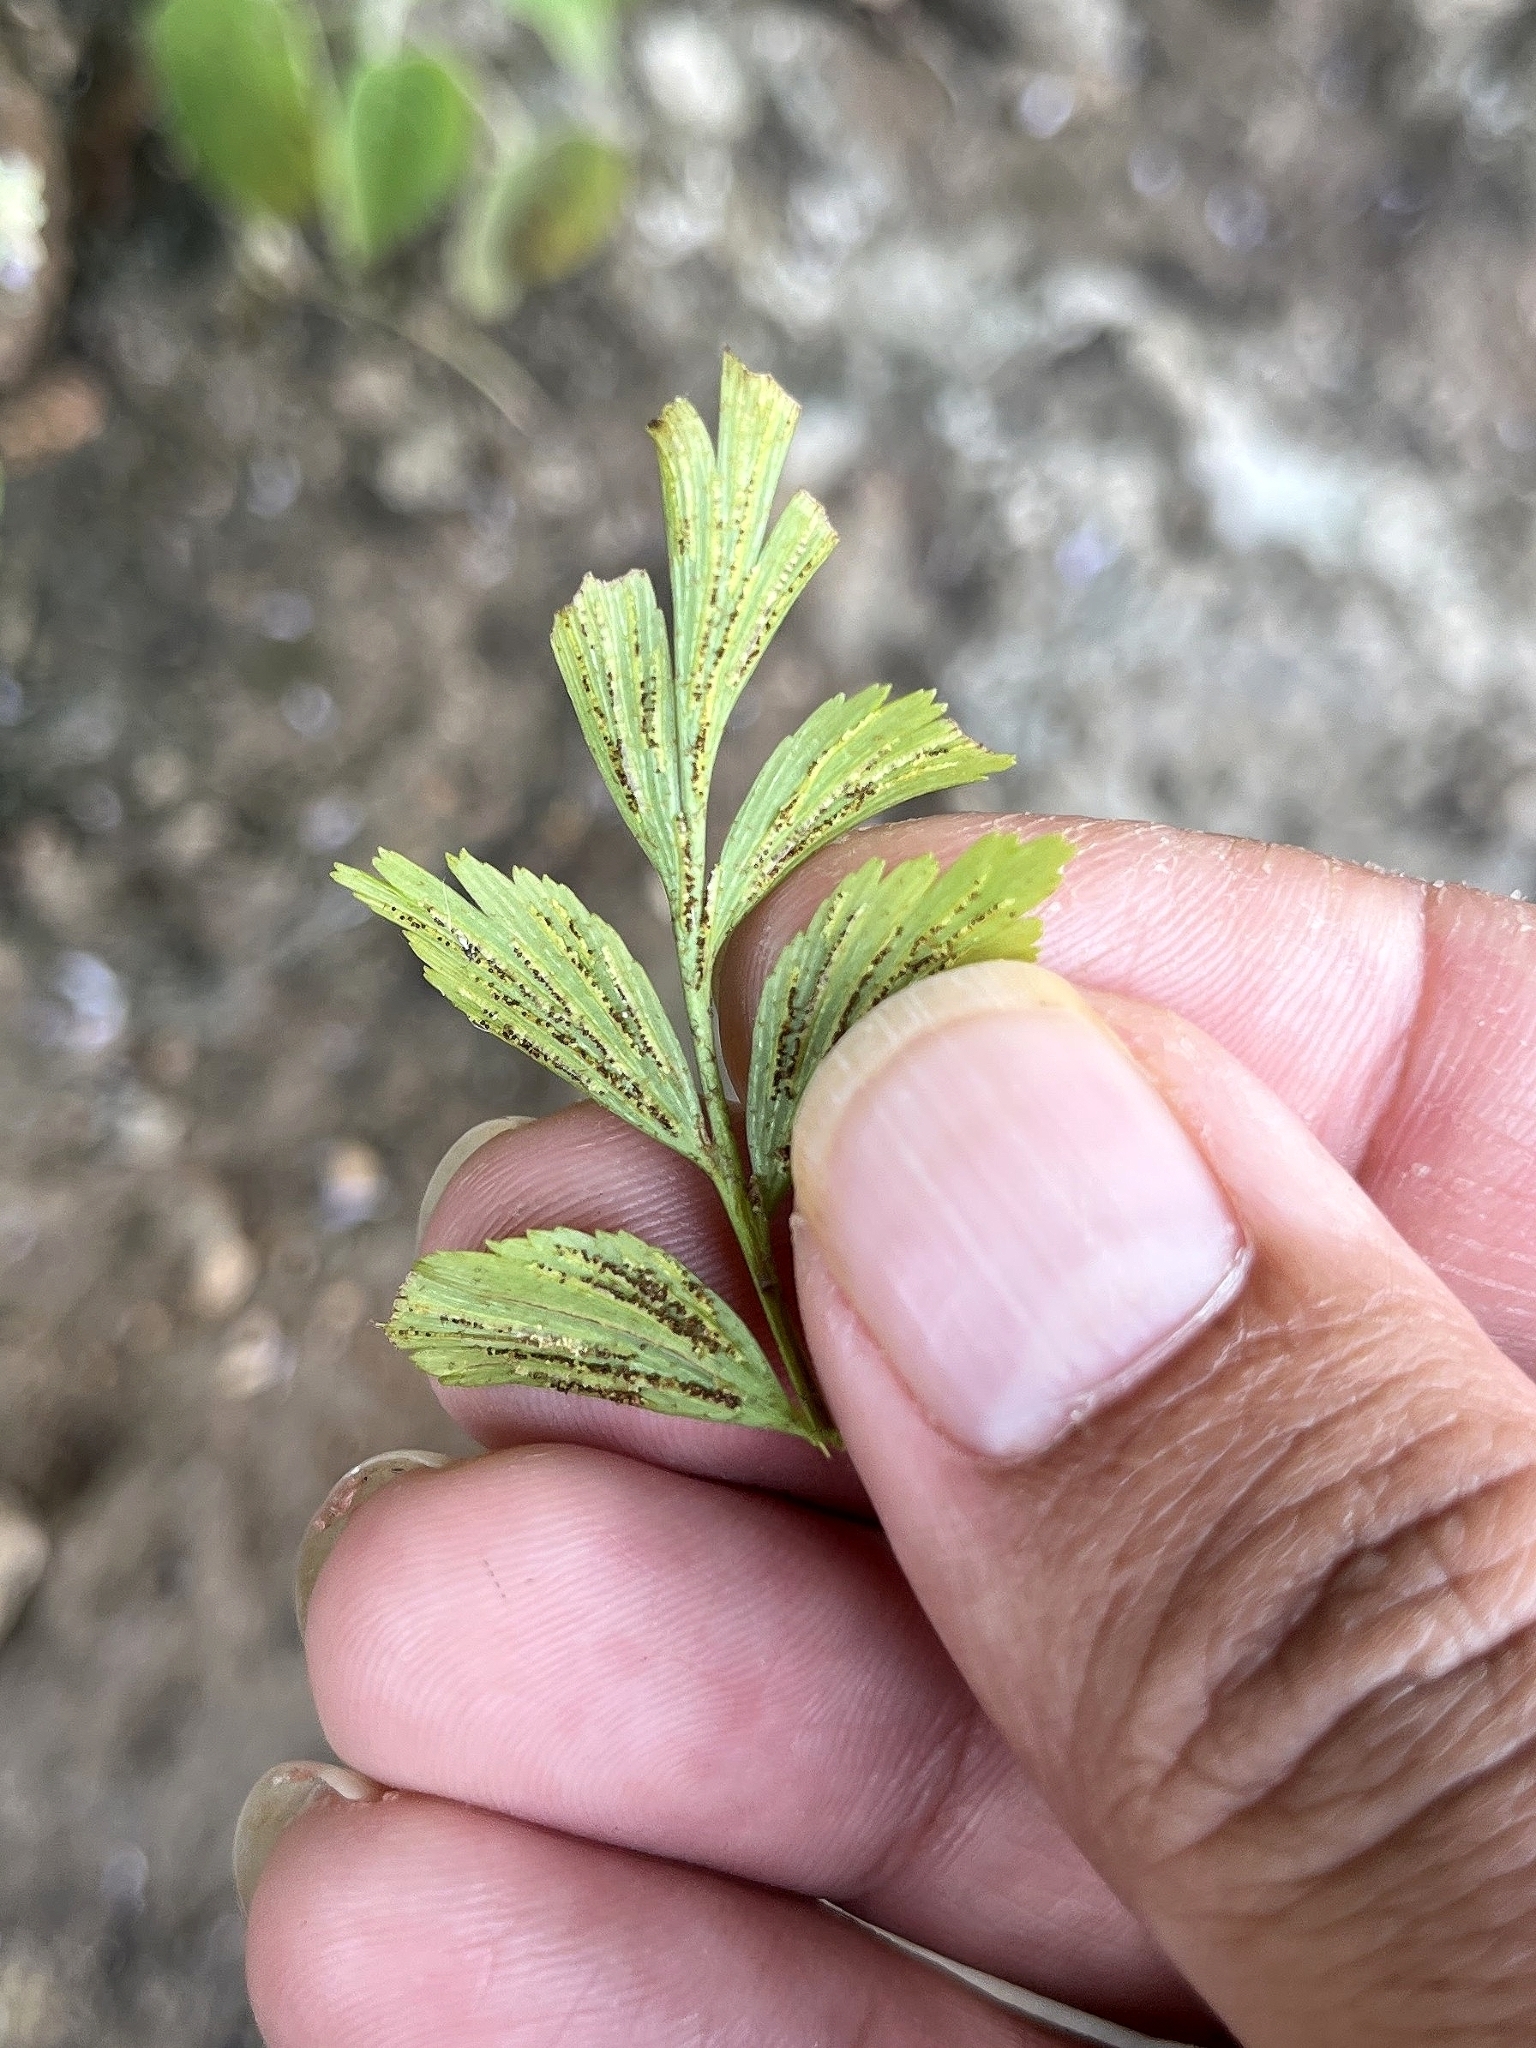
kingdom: Plantae
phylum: Tracheophyta
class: Polypodiopsida
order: Polypodiales
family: Aspleniaceae
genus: Asplenium
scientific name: Asplenium aethiopicum
